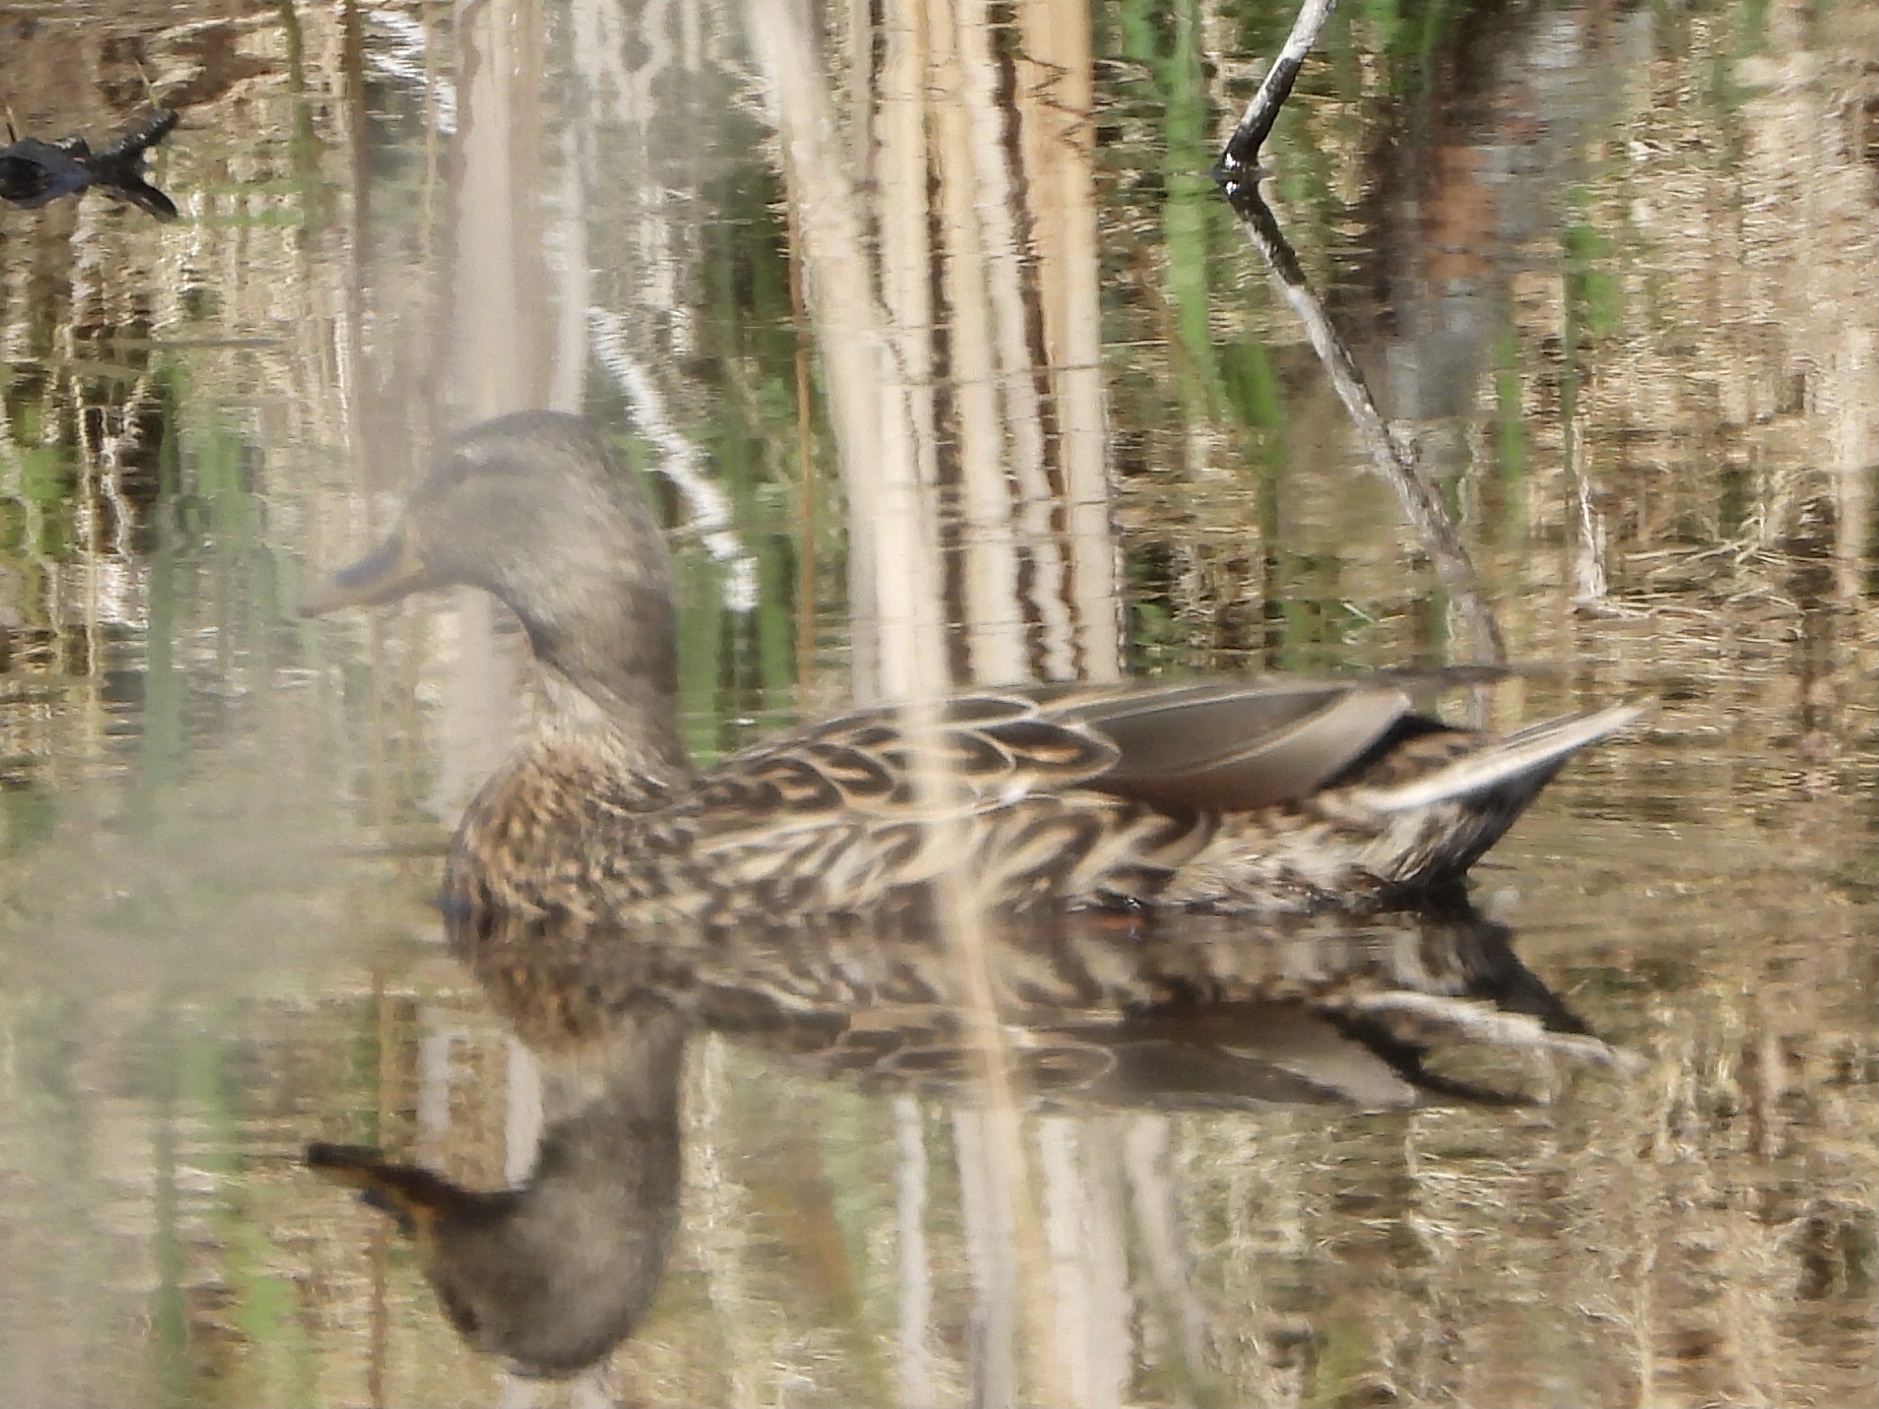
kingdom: Animalia
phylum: Chordata
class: Aves
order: Anseriformes
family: Anatidae
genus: Anas
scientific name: Anas platyrhynchos
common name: Mallard
